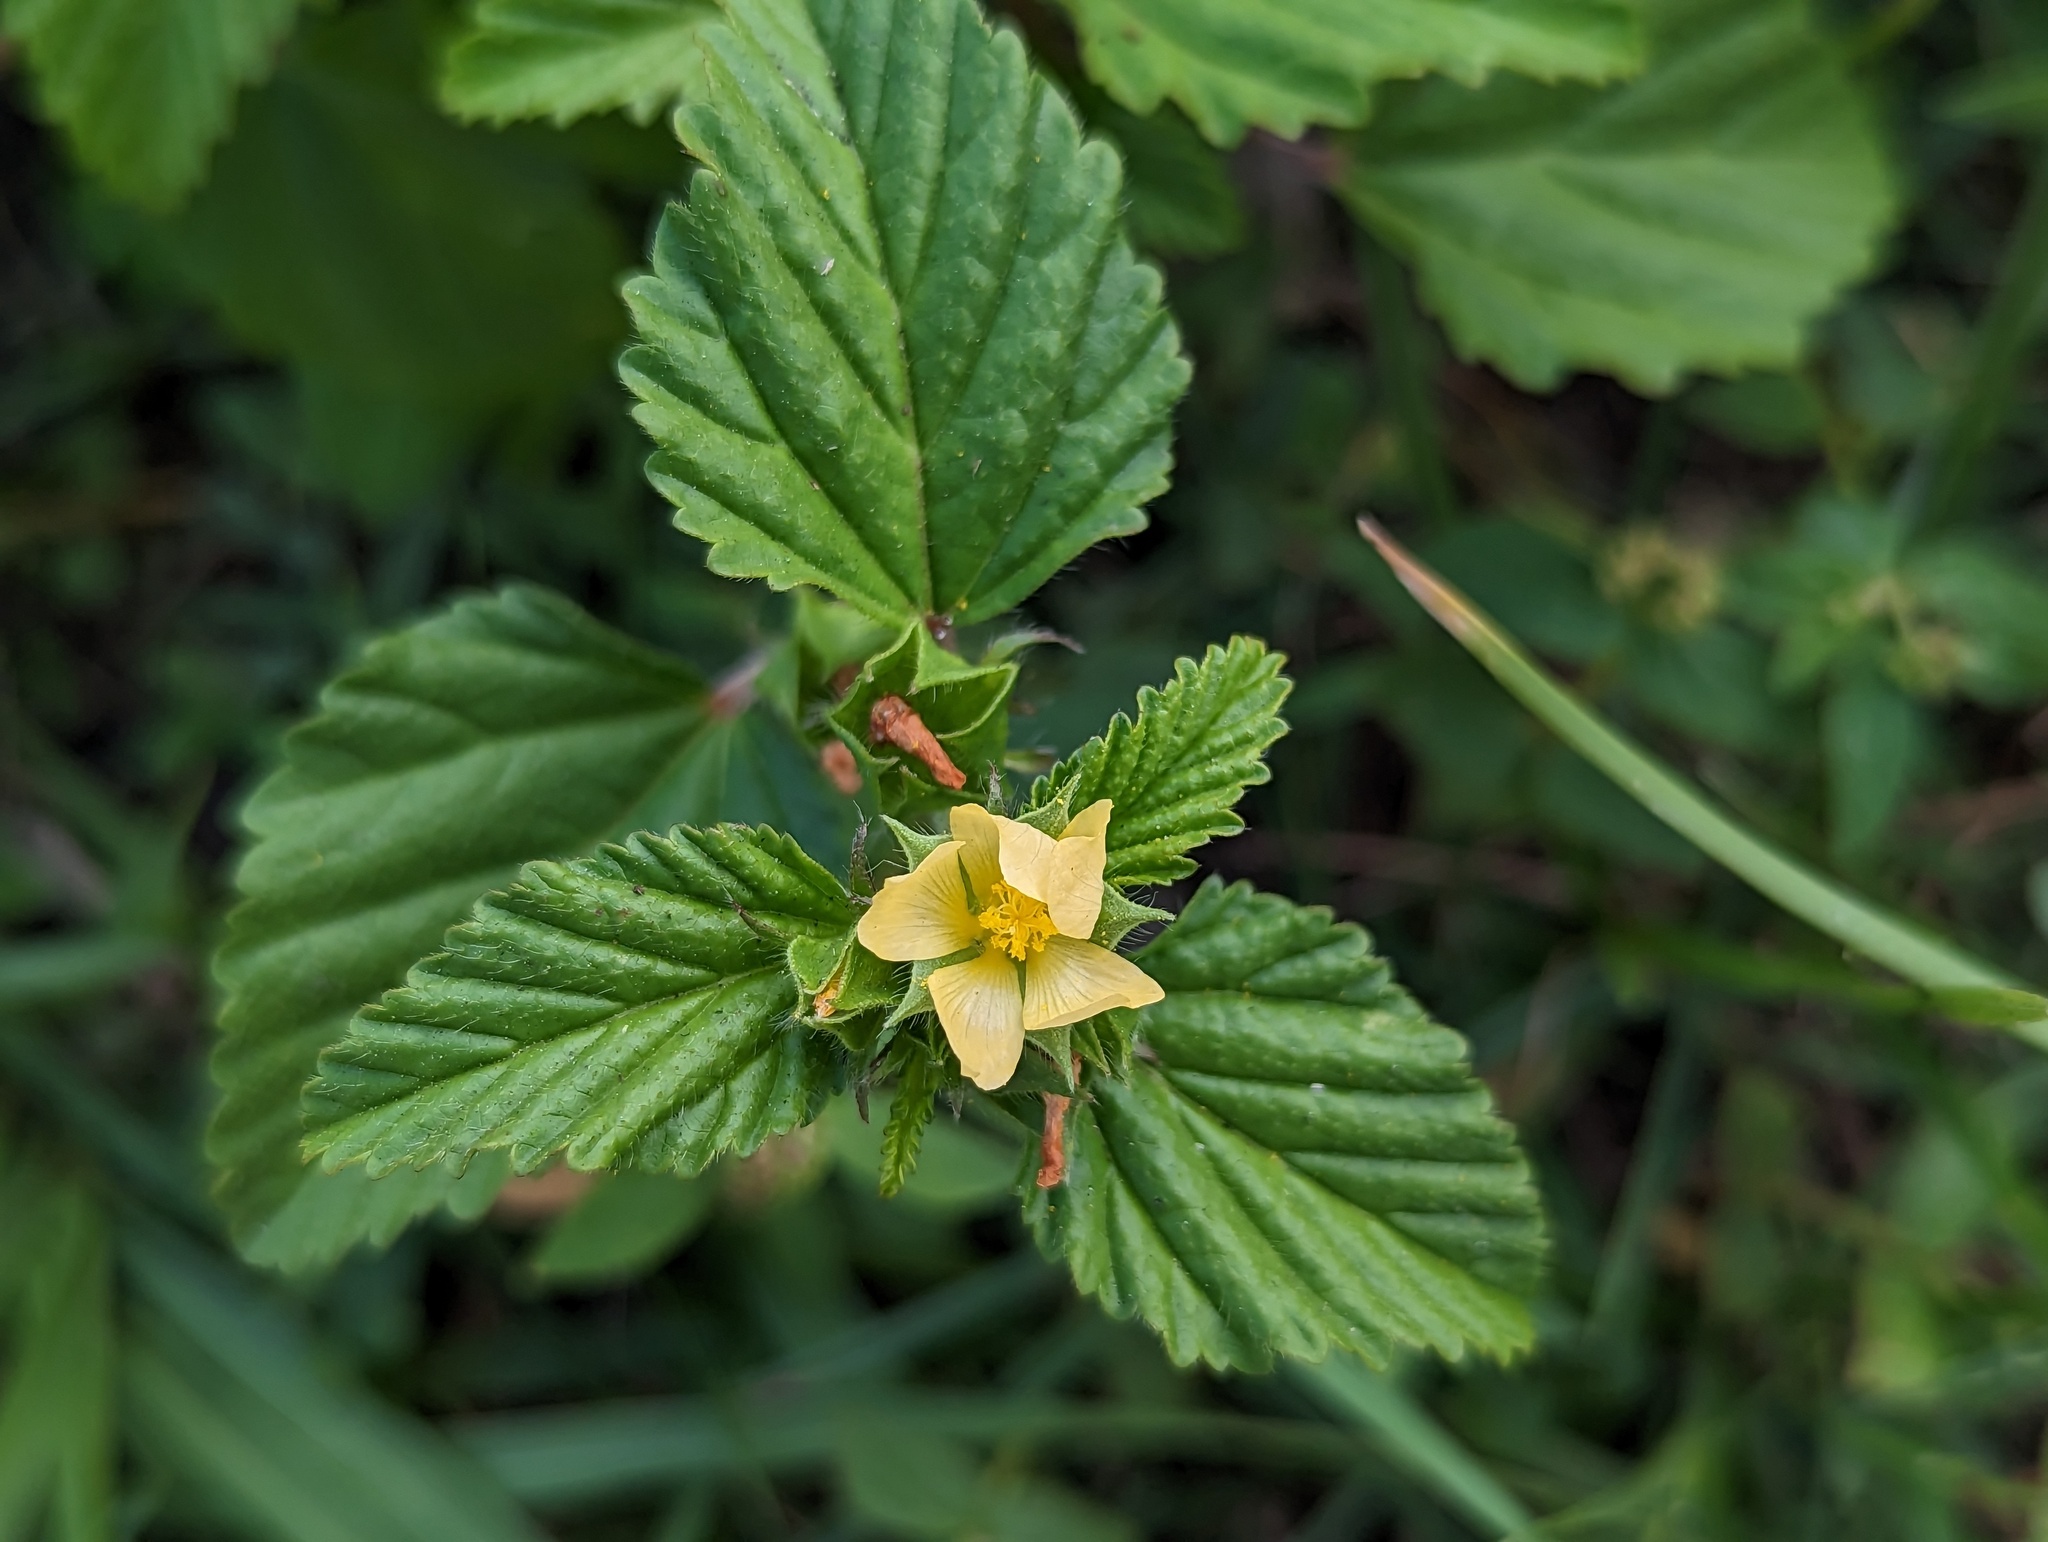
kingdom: Plantae
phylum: Tracheophyta
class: Magnoliopsida
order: Malvales
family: Malvaceae
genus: Malvastrum
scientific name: Malvastrum coromandelianum
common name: Threelobe false mallow
